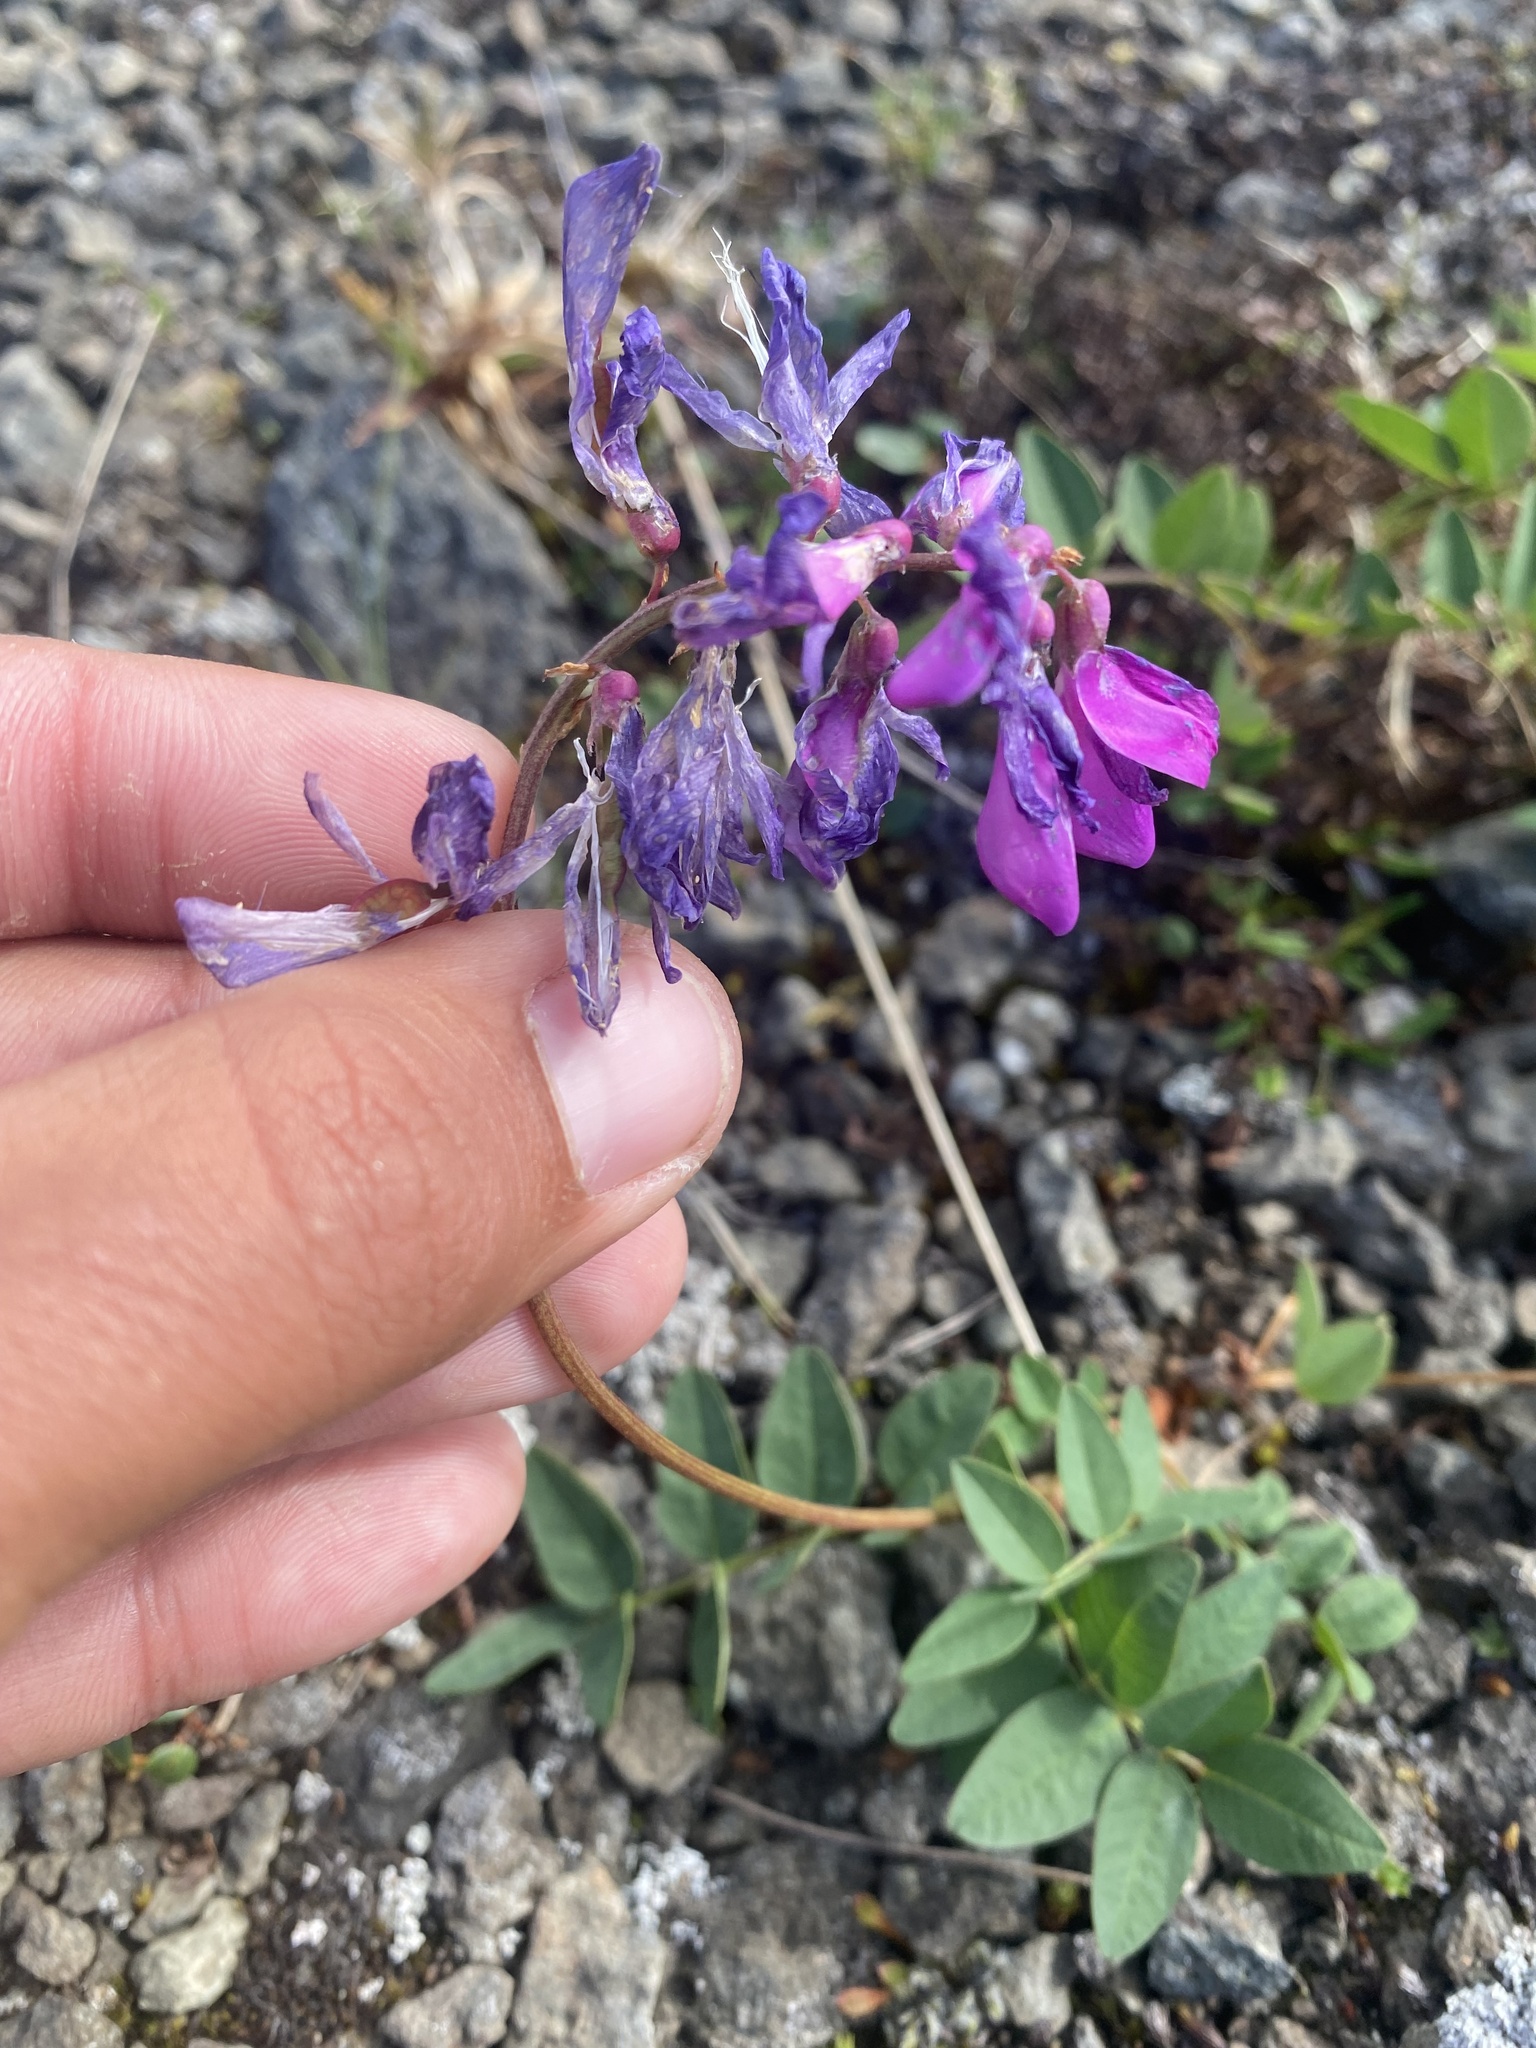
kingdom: Plantae
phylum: Tracheophyta
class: Magnoliopsida
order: Fabales
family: Fabaceae
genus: Hedysarum
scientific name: Hedysarum hedysaroides
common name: Alpine french-honeysuckle
